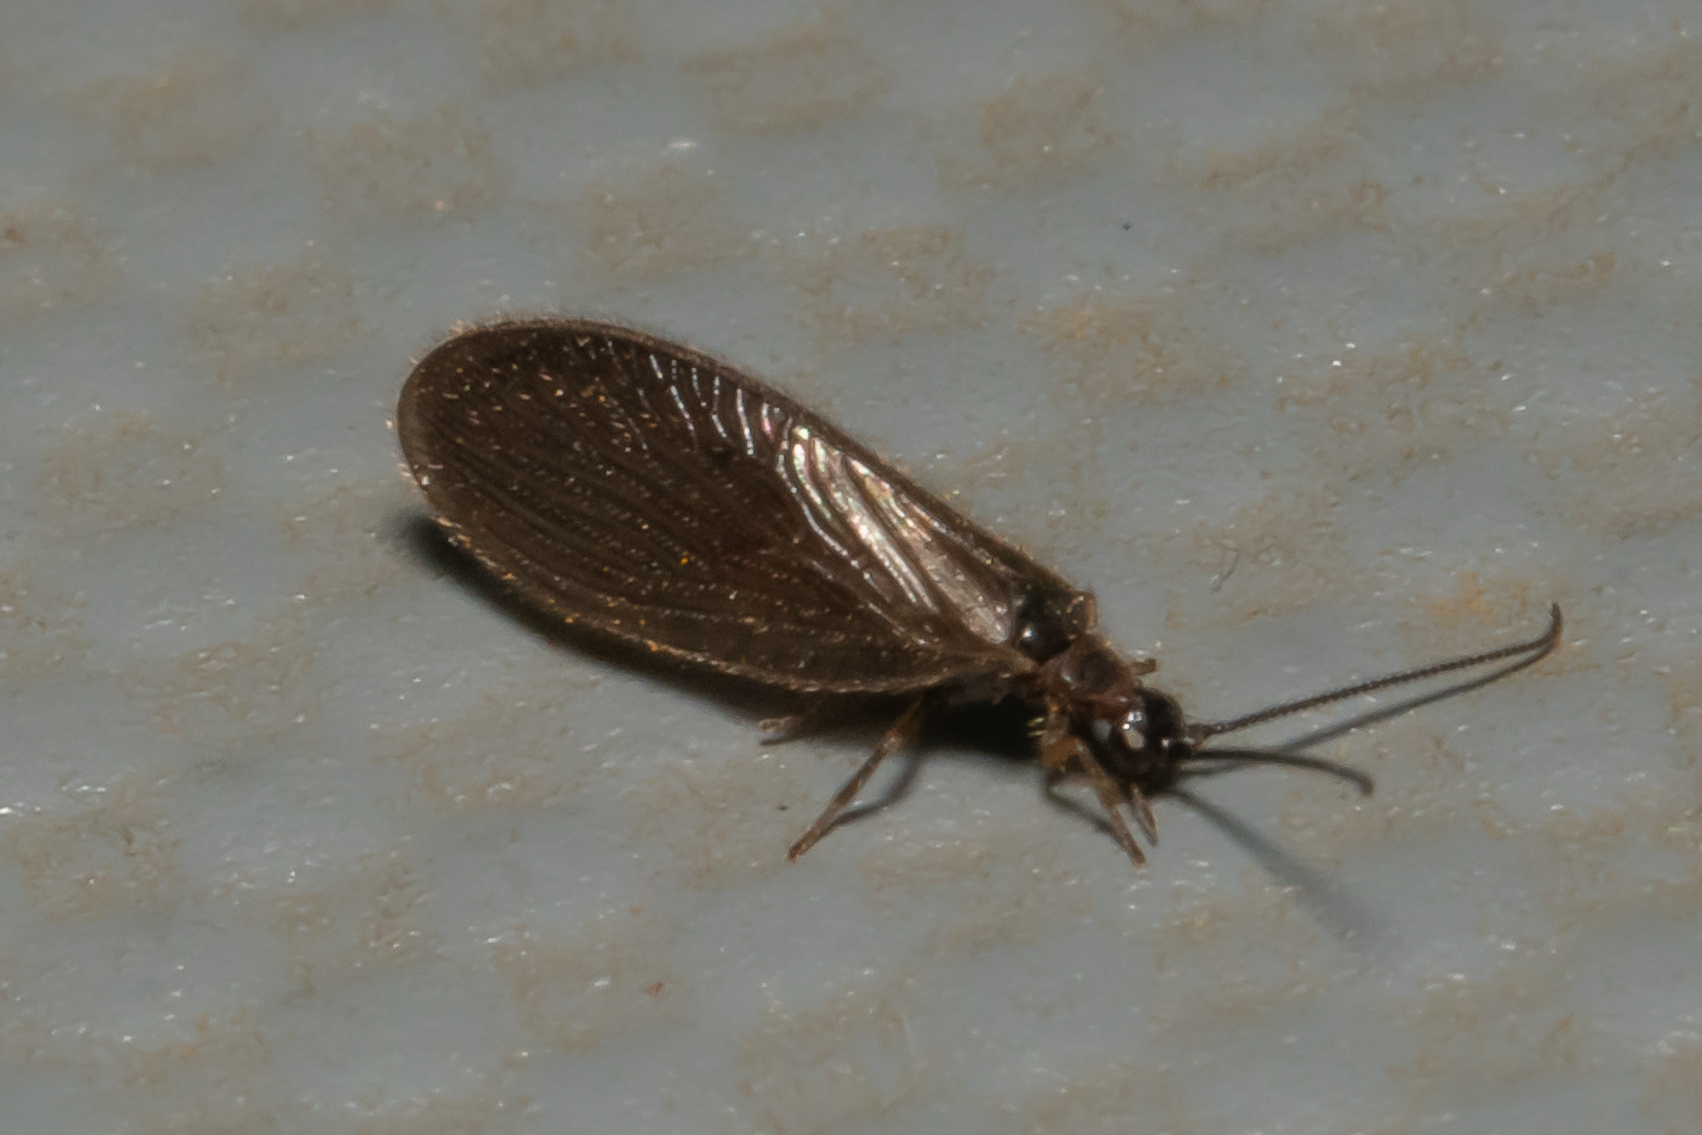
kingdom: Animalia
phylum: Arthropoda
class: Insecta
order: Neuroptera
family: Sisyridae
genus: Sisyra
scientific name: Sisyra nigra
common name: Black spongillafly
